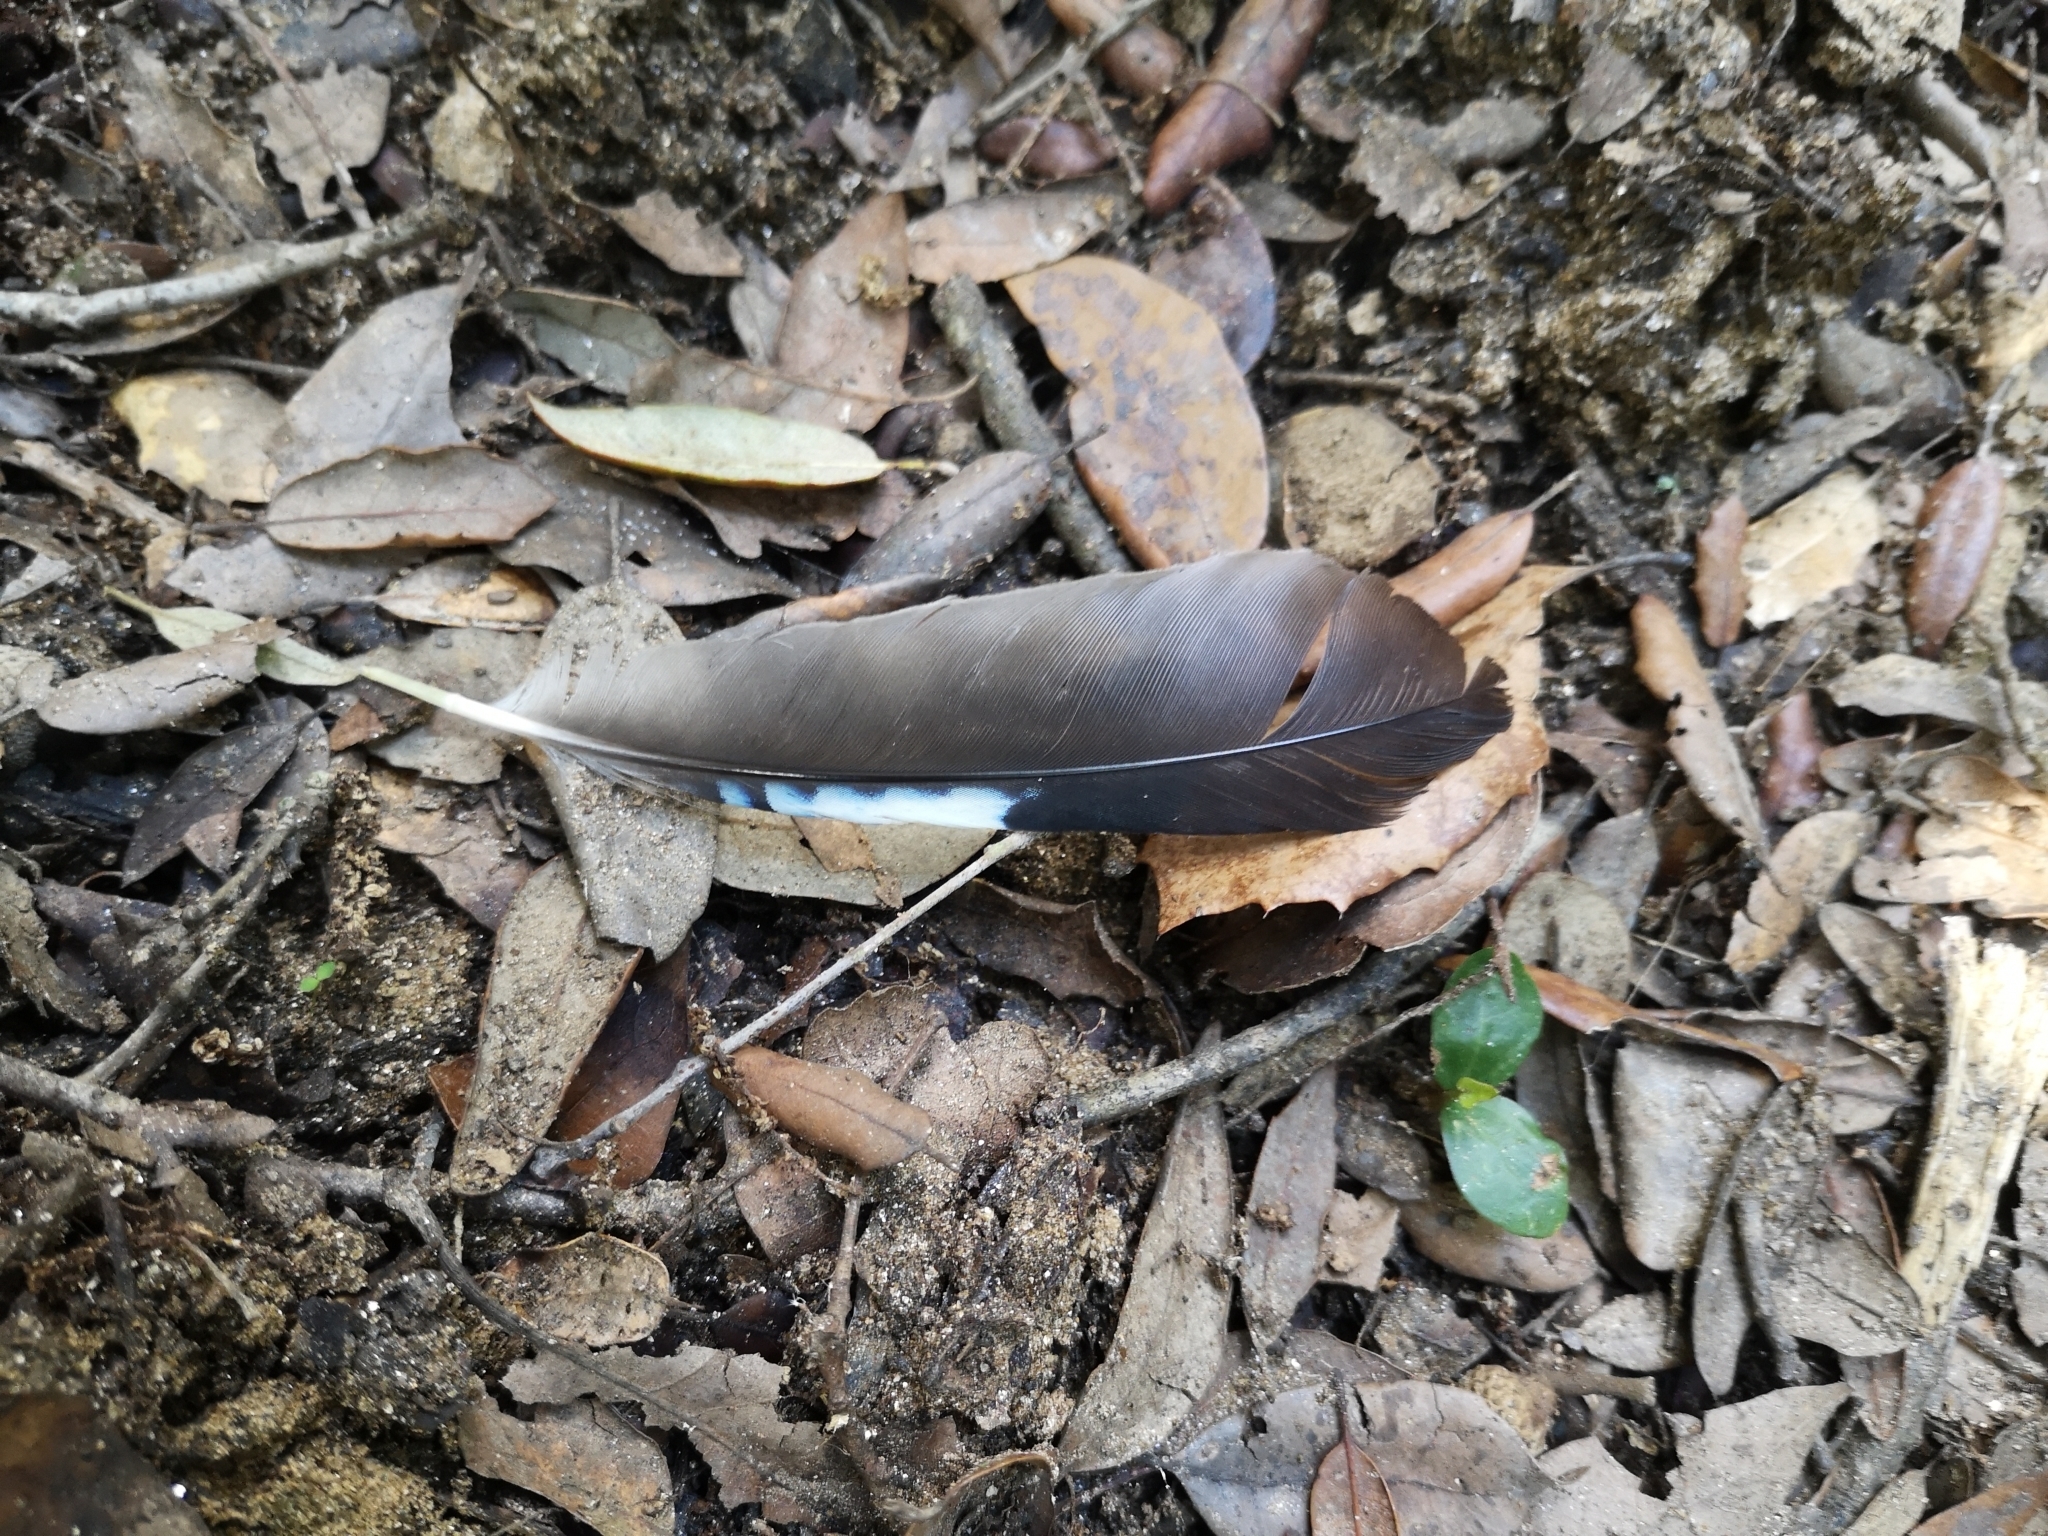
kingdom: Animalia
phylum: Chordata
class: Aves
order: Passeriformes
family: Corvidae
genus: Garrulus
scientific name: Garrulus glandarius
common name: Eurasian jay
